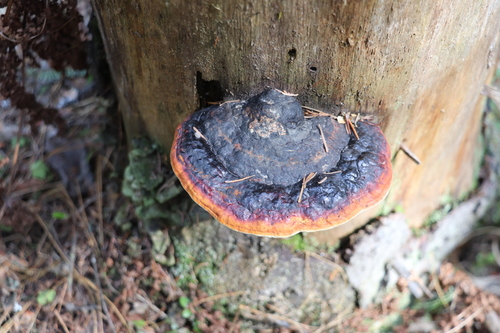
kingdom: Fungi
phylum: Basidiomycota
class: Agaricomycetes
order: Polyporales
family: Fomitopsidaceae
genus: Fomitopsis
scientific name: Fomitopsis pinicola
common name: Red-belted bracket
